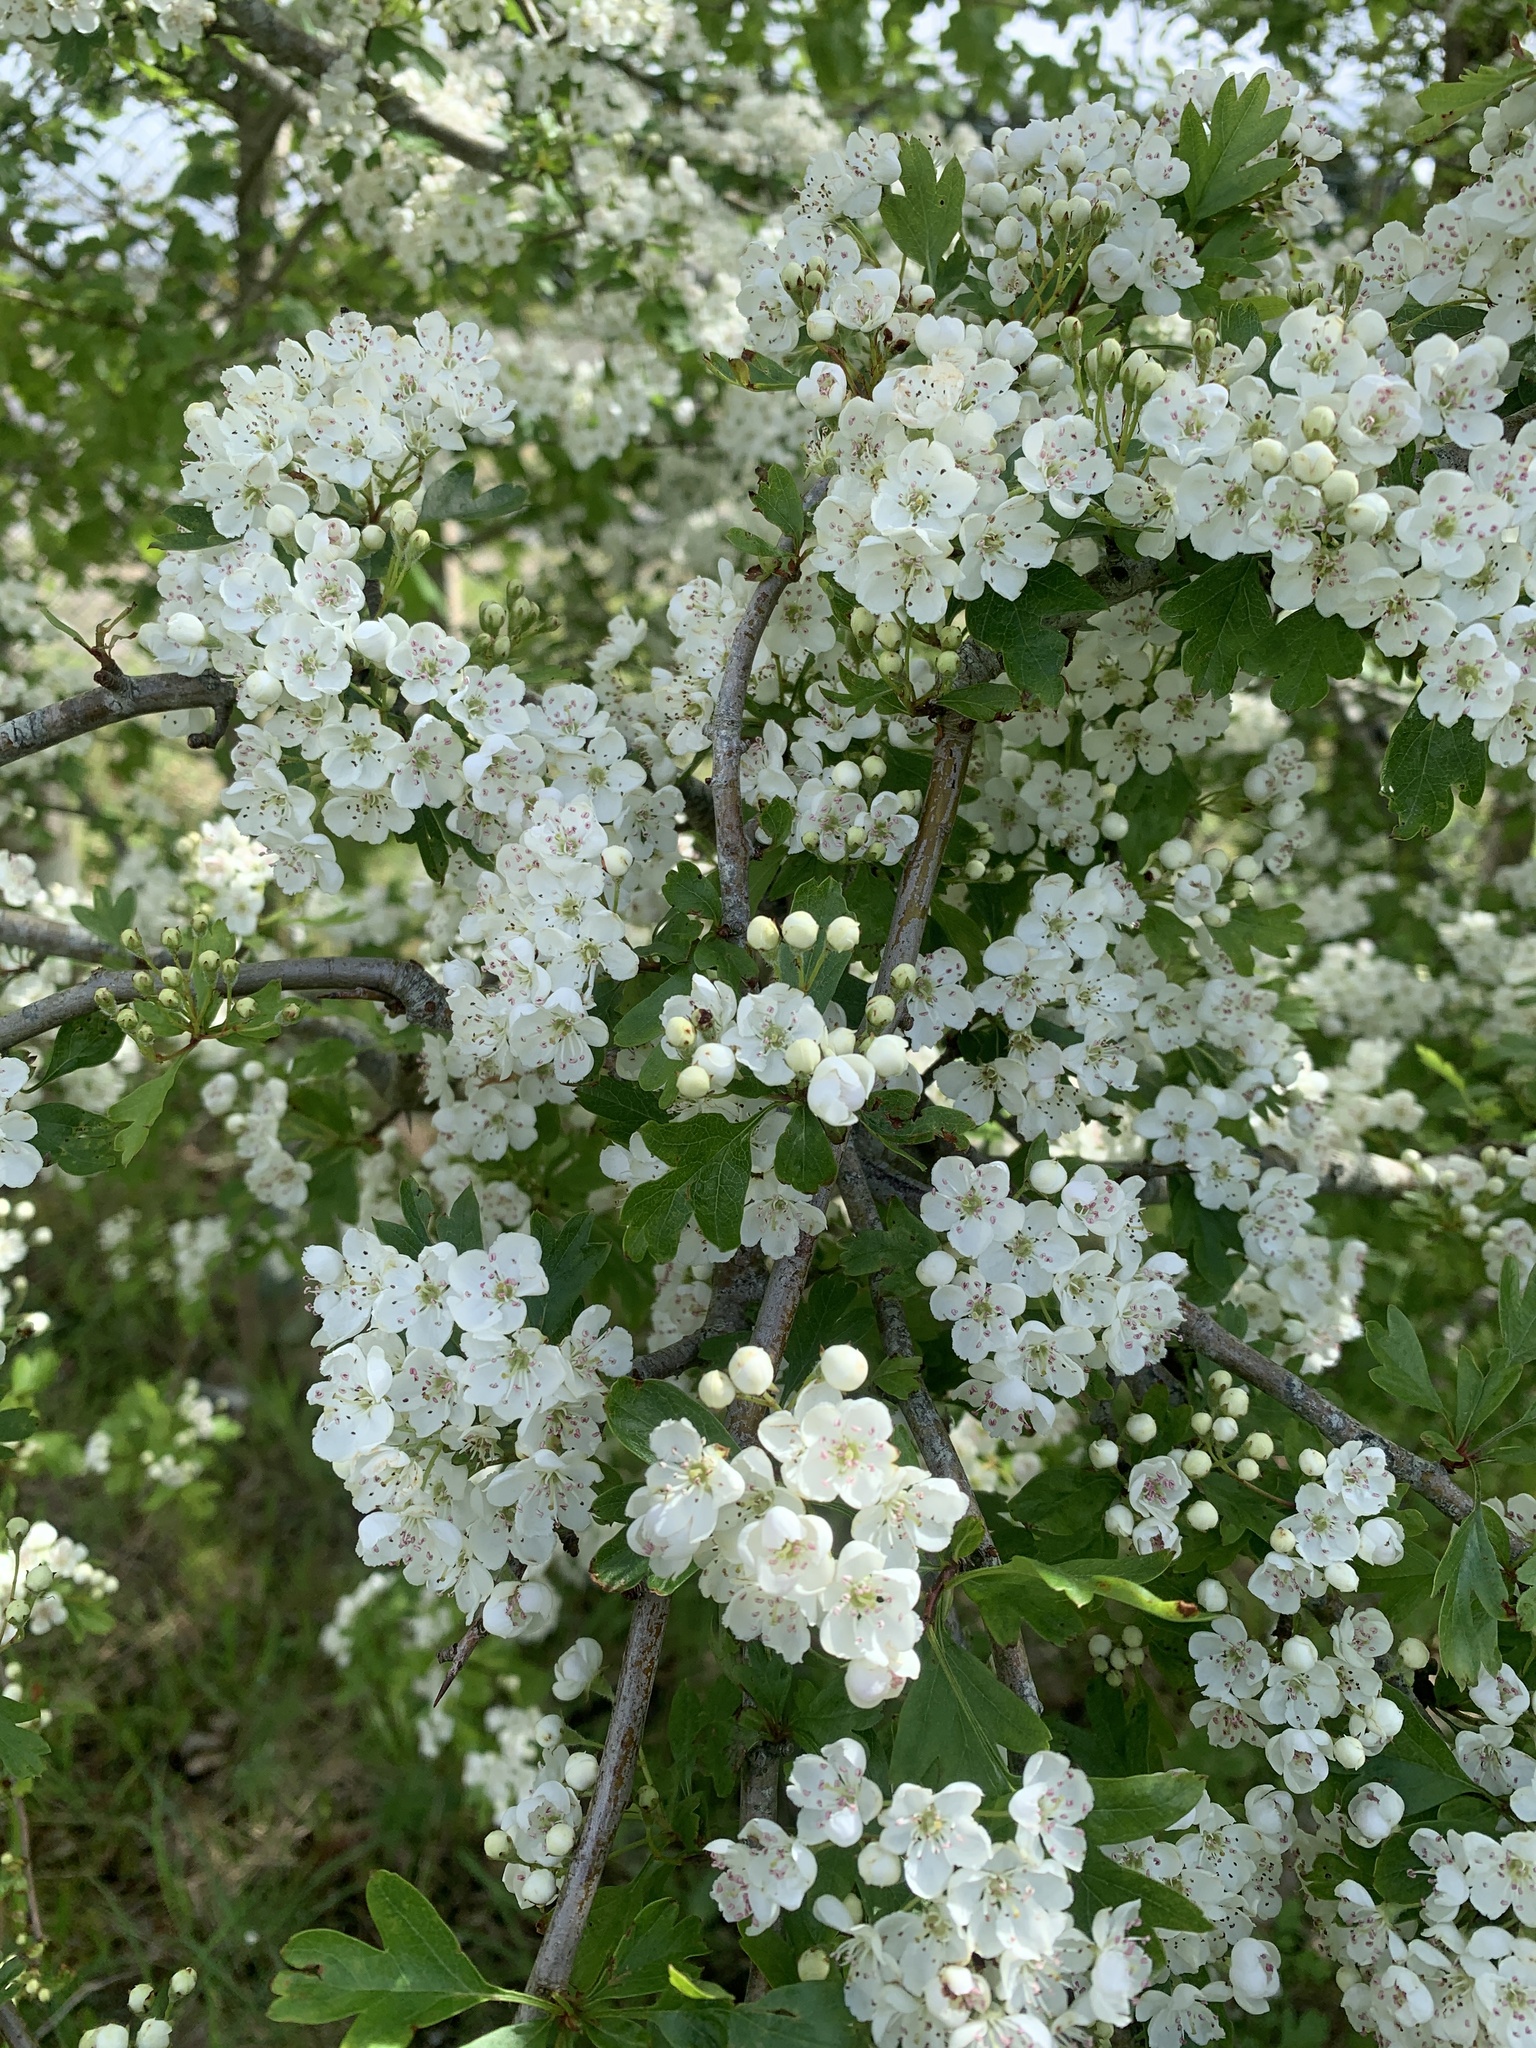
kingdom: Plantae
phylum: Tracheophyta
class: Magnoliopsida
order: Rosales
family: Rosaceae
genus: Crataegus
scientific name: Crataegus monogyna
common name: Hawthorn
